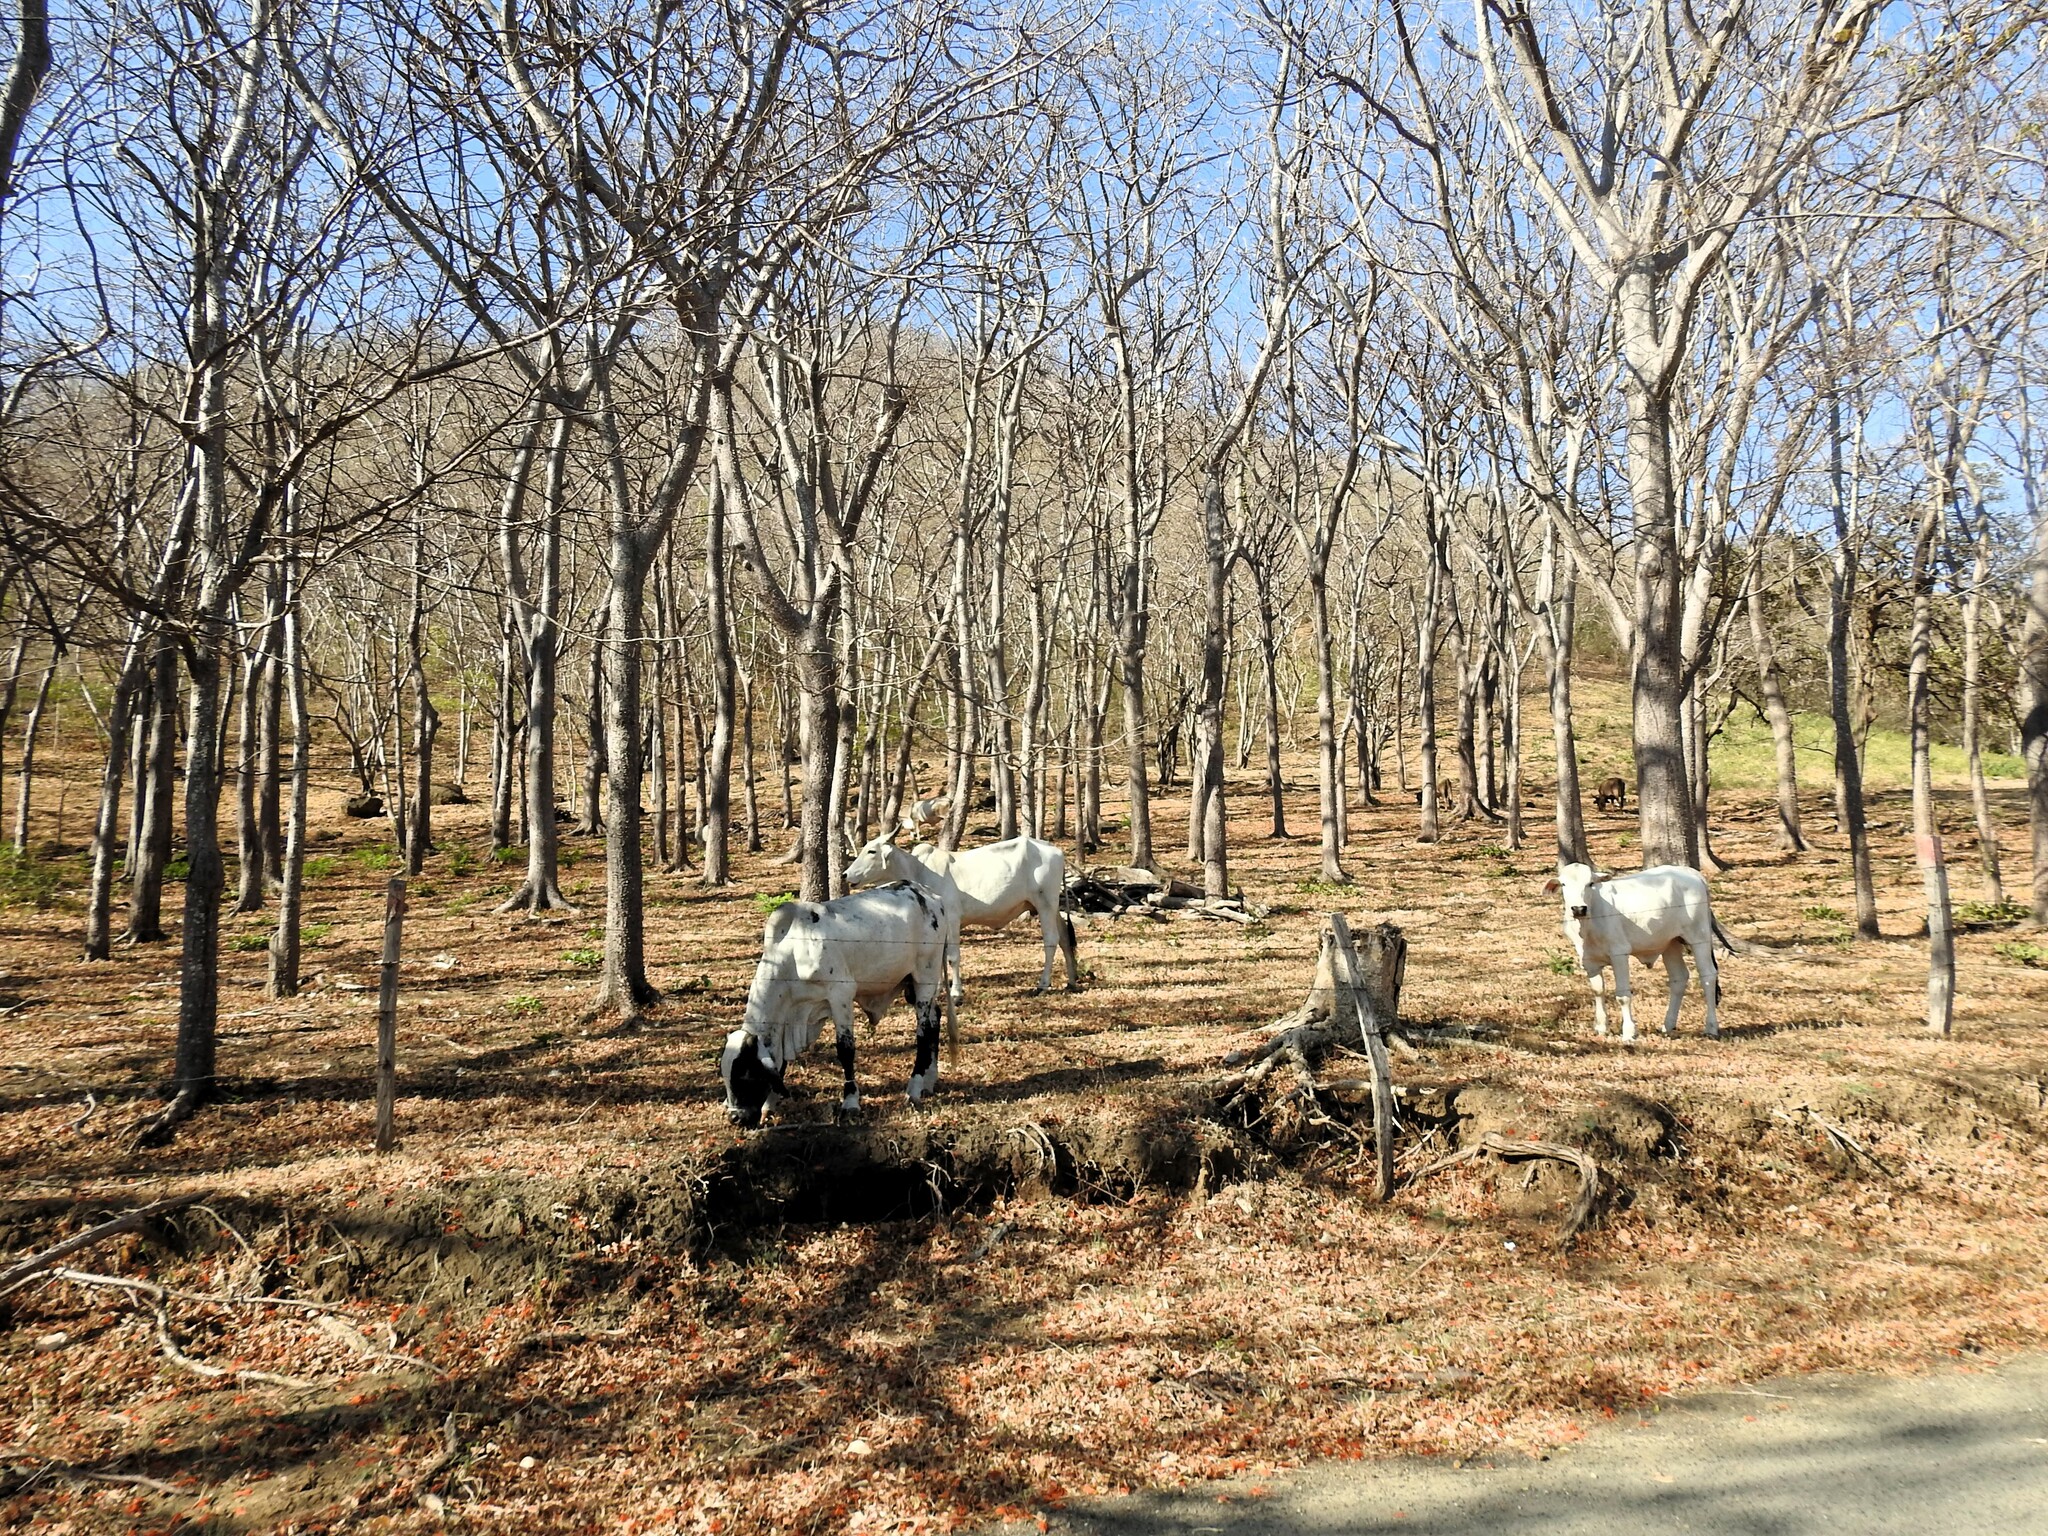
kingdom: Animalia
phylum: Chordata
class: Mammalia
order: Artiodactyla
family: Bovidae
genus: Bos
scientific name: Bos taurus
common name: Domesticated cattle
